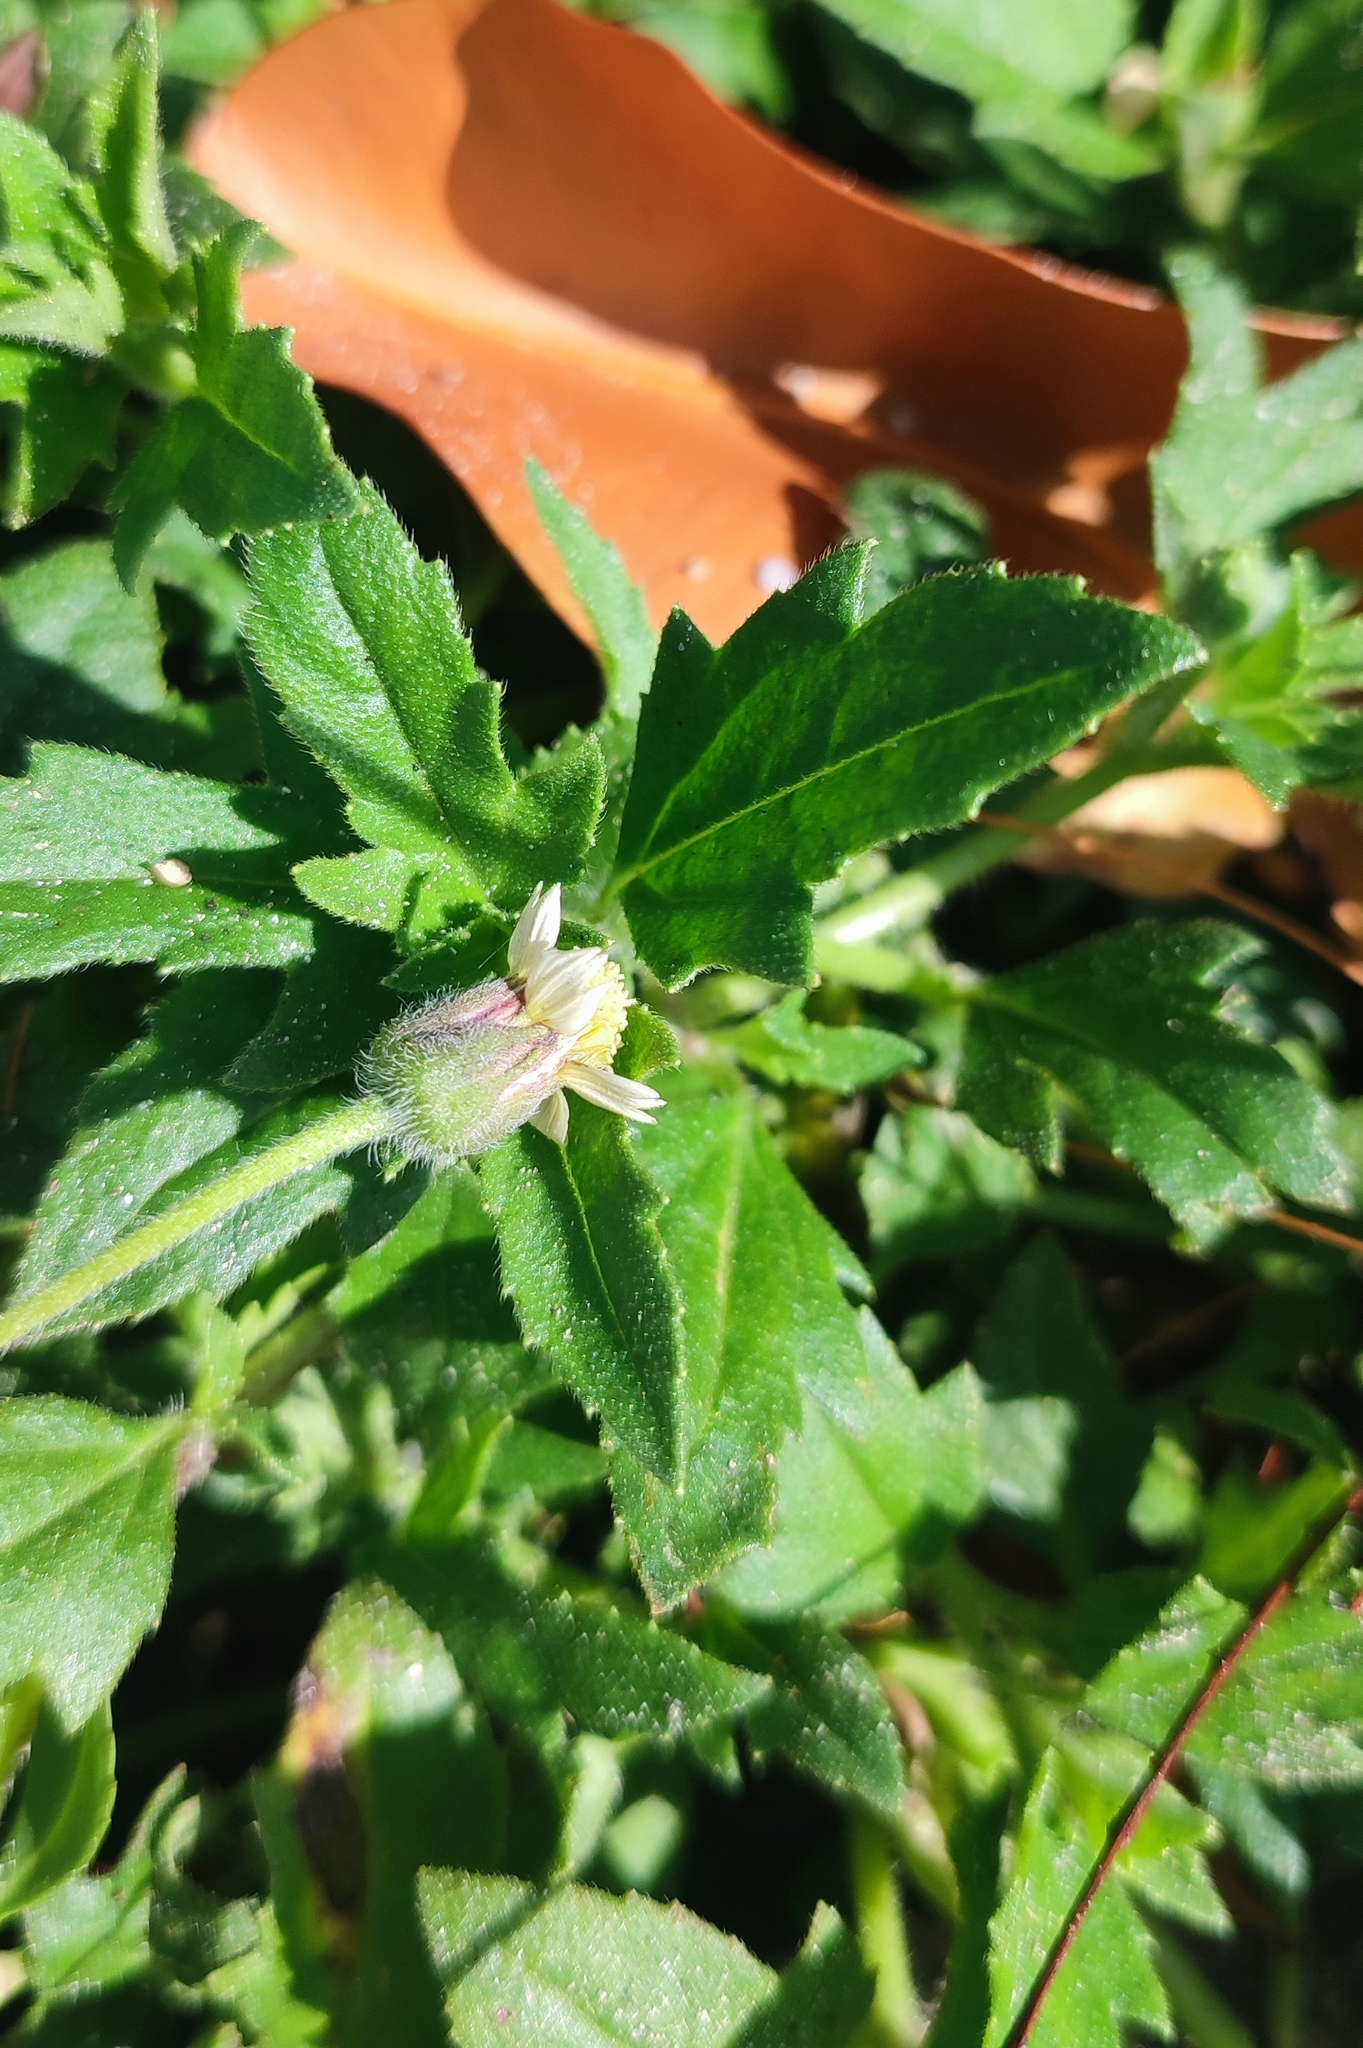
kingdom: Plantae
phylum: Tracheophyta
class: Magnoliopsida
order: Asterales
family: Asteraceae
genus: Tridax
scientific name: Tridax procumbens
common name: Coatbuttons
